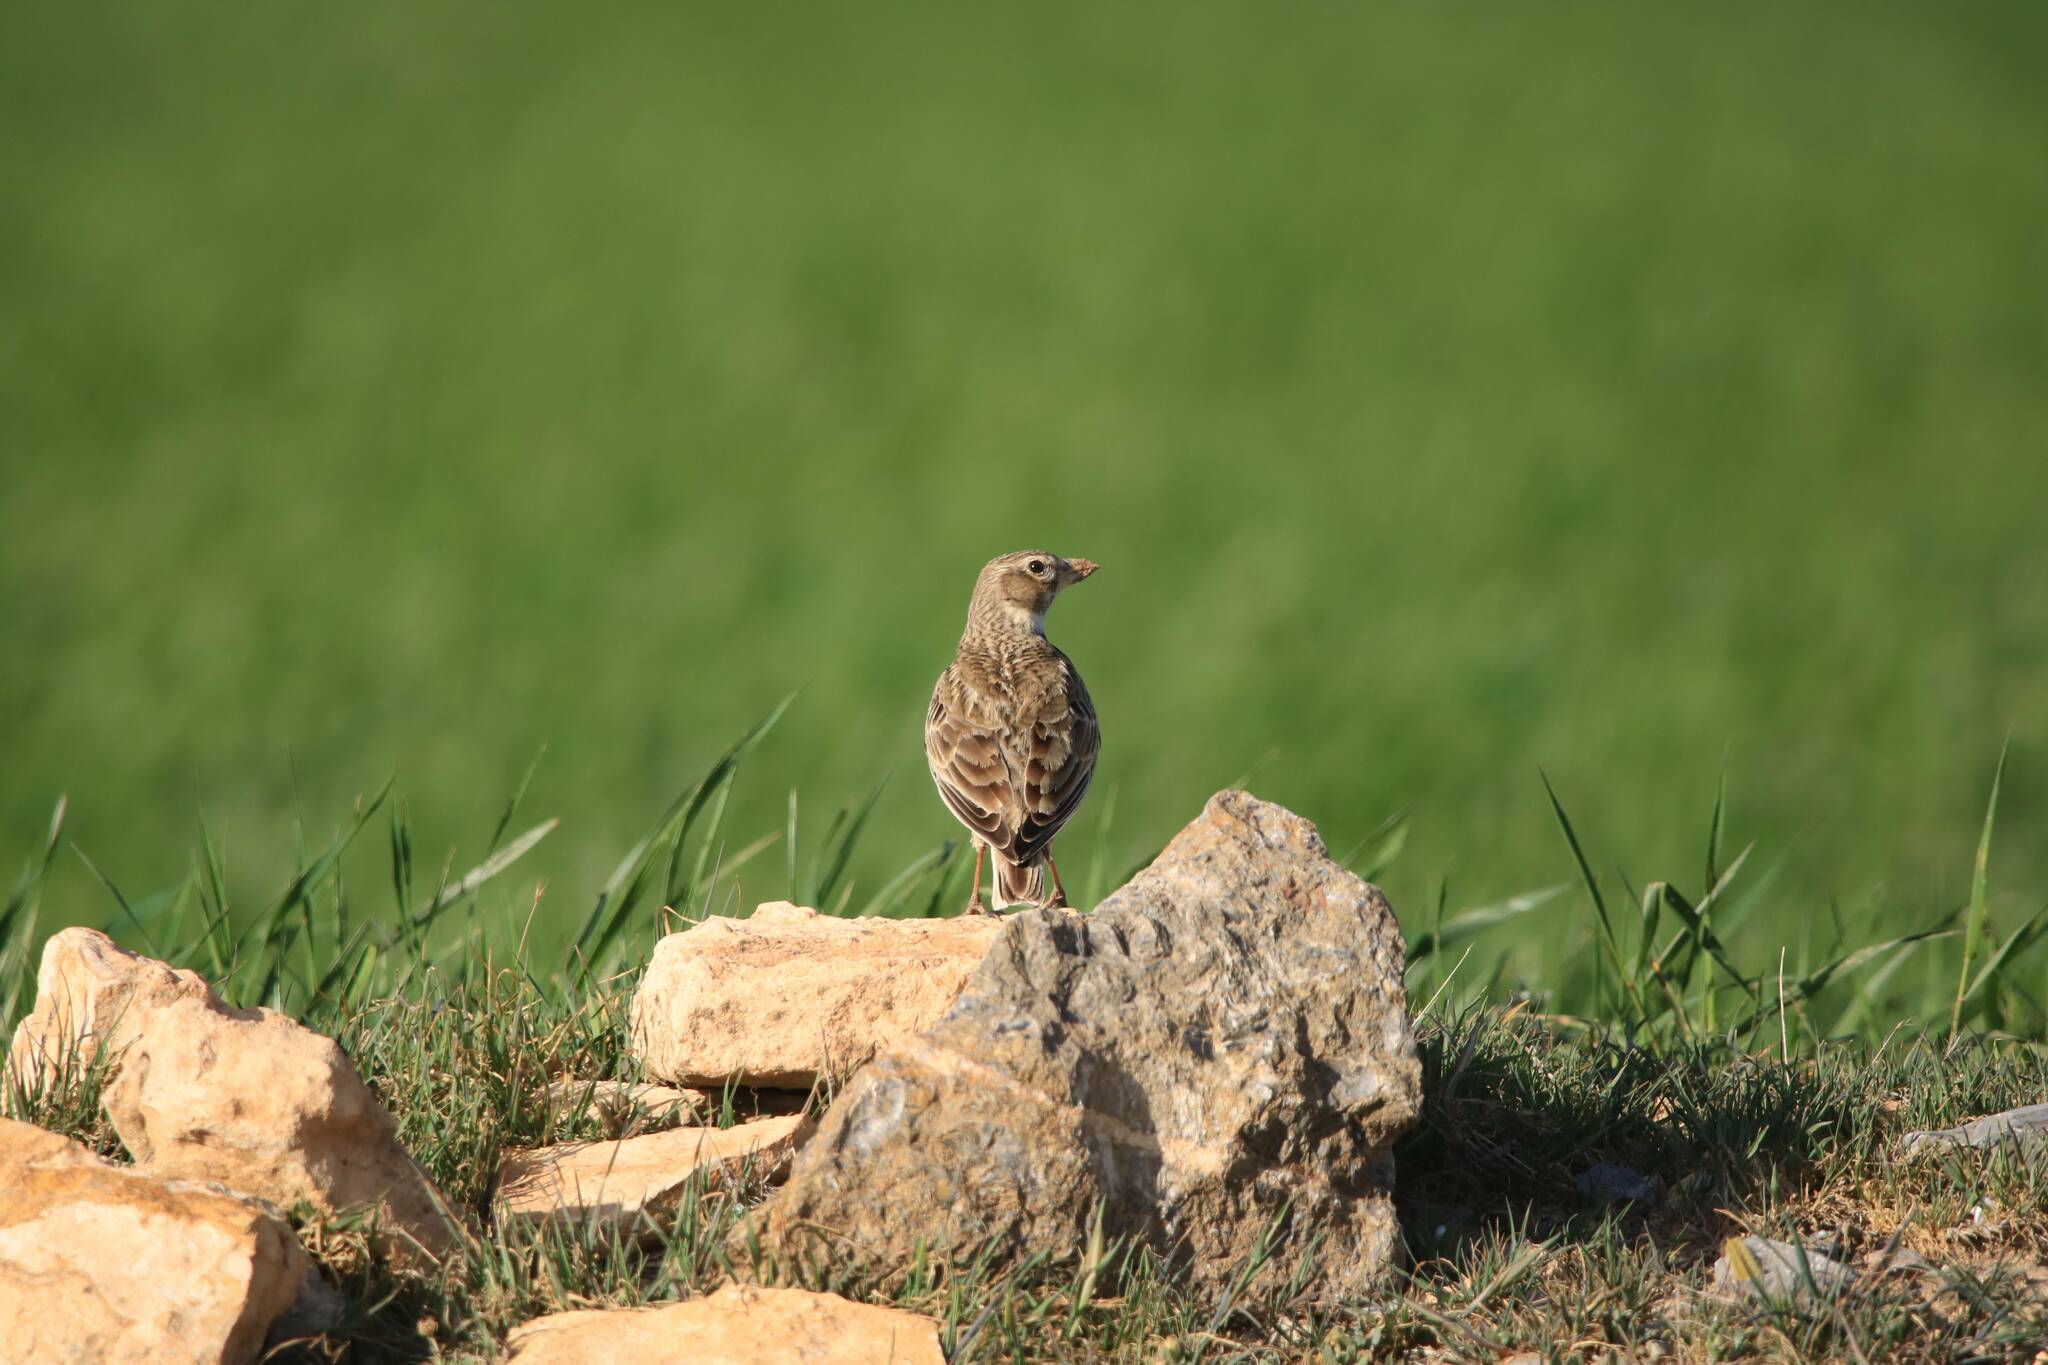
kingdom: Animalia
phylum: Chordata
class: Aves
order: Passeriformes
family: Alaudidae
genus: Melanocorypha
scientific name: Melanocorypha calandra
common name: Calandra lark
